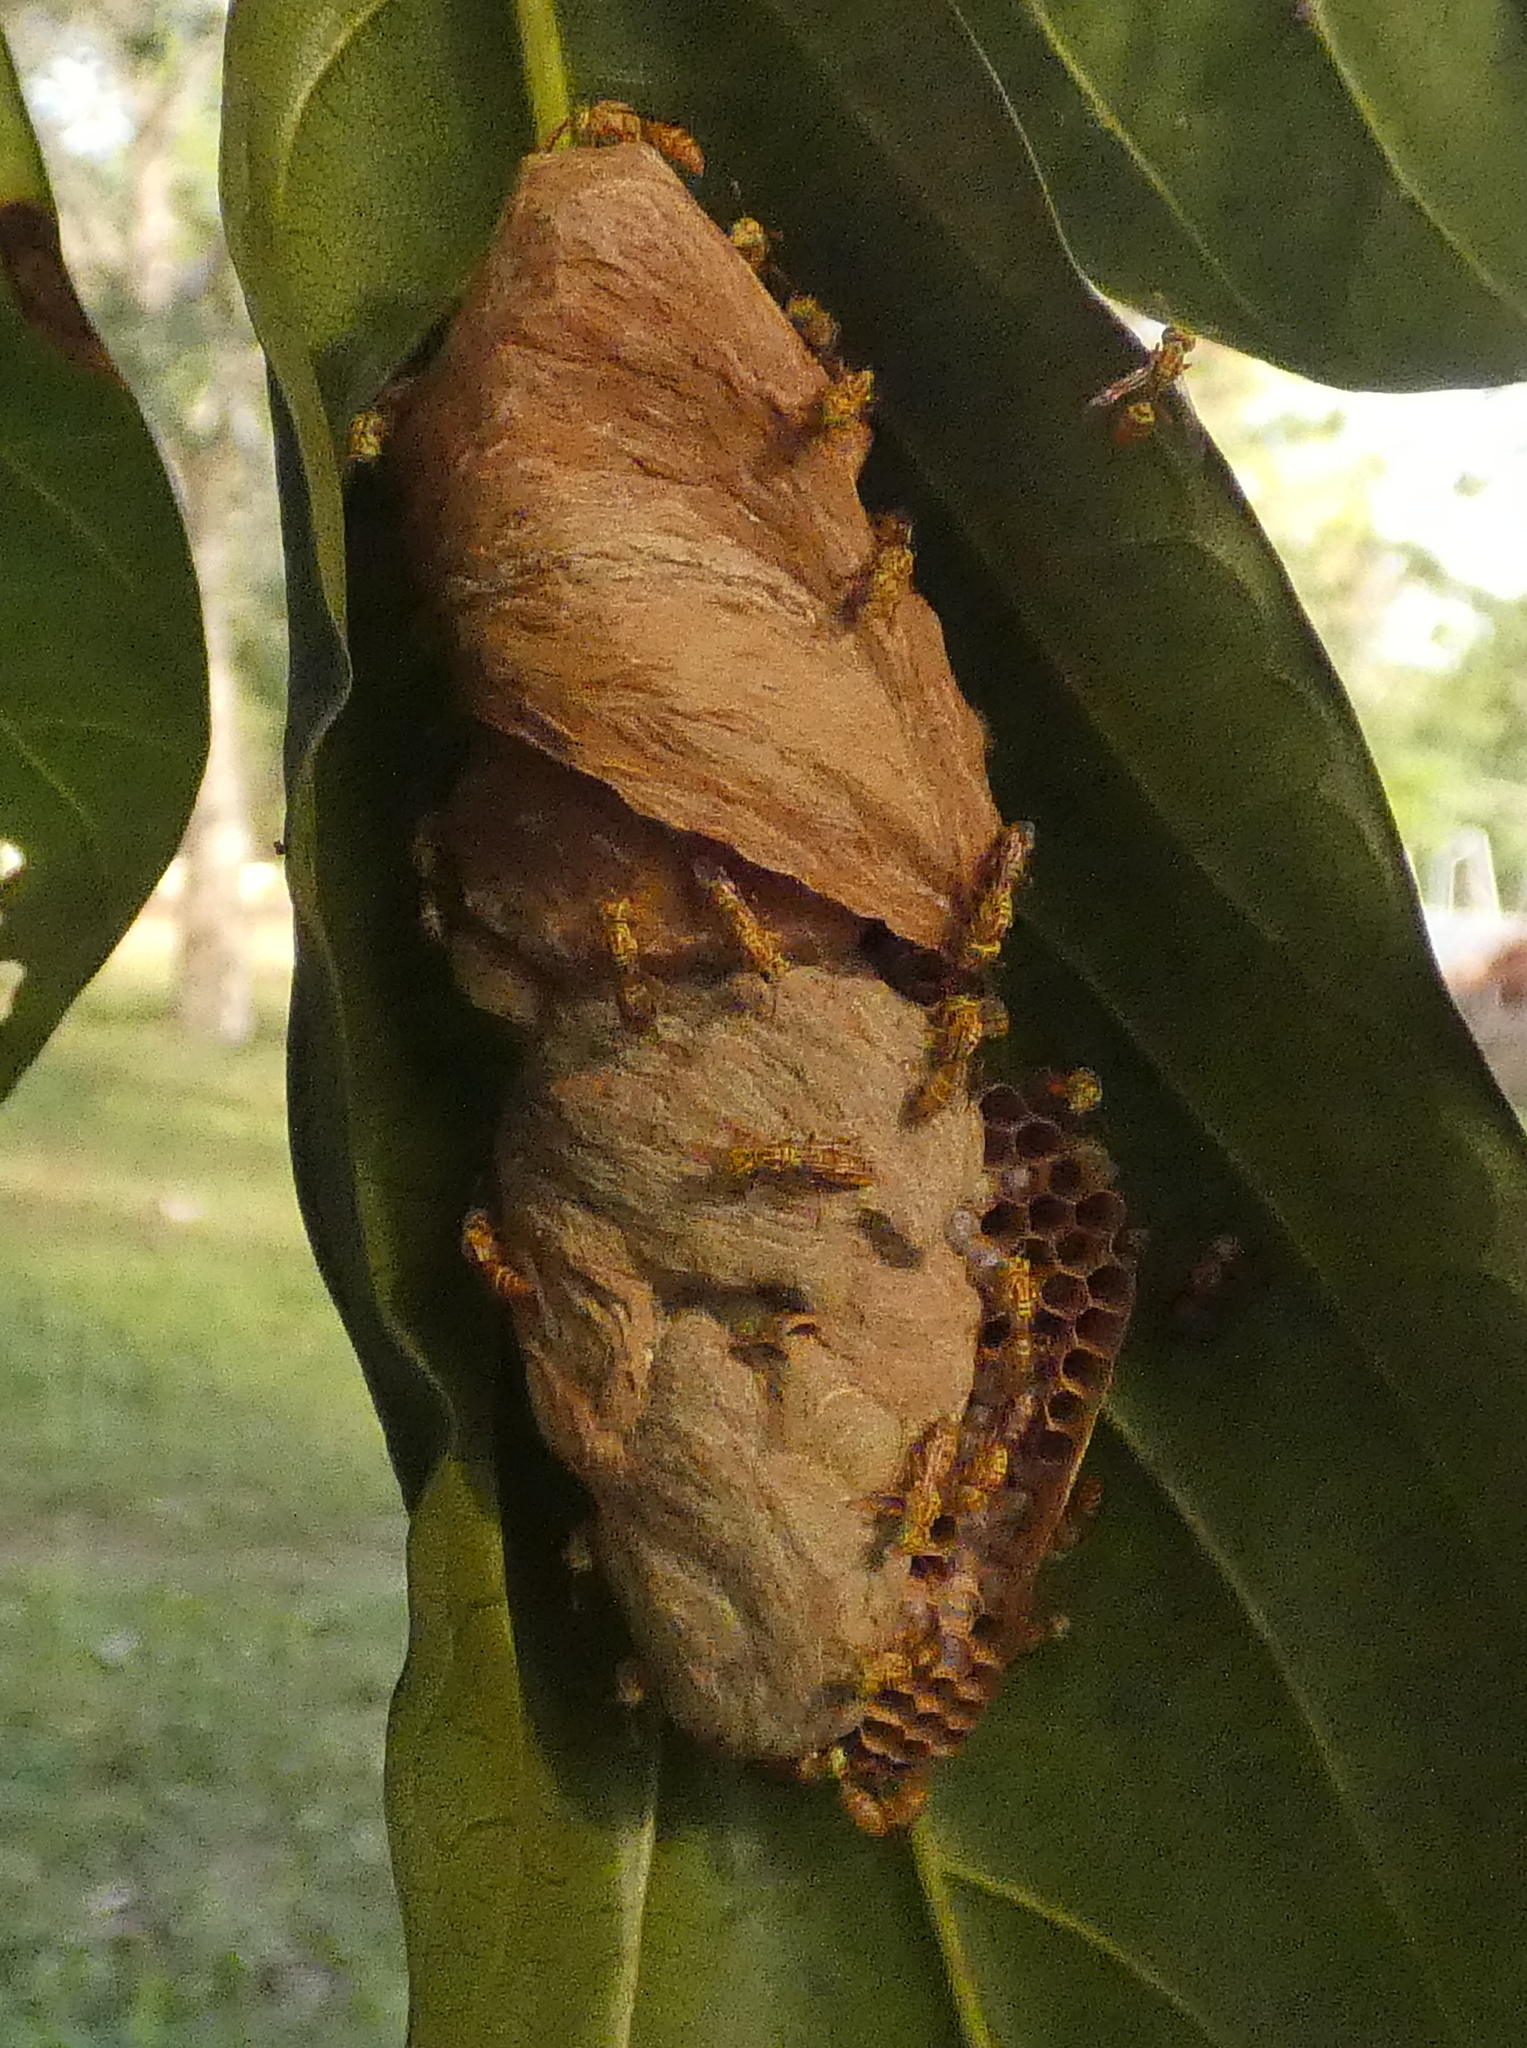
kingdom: Animalia
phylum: Arthropoda
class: Insecta
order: Hymenoptera
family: Vespidae
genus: Protopolybia
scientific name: Protopolybia potiguara
